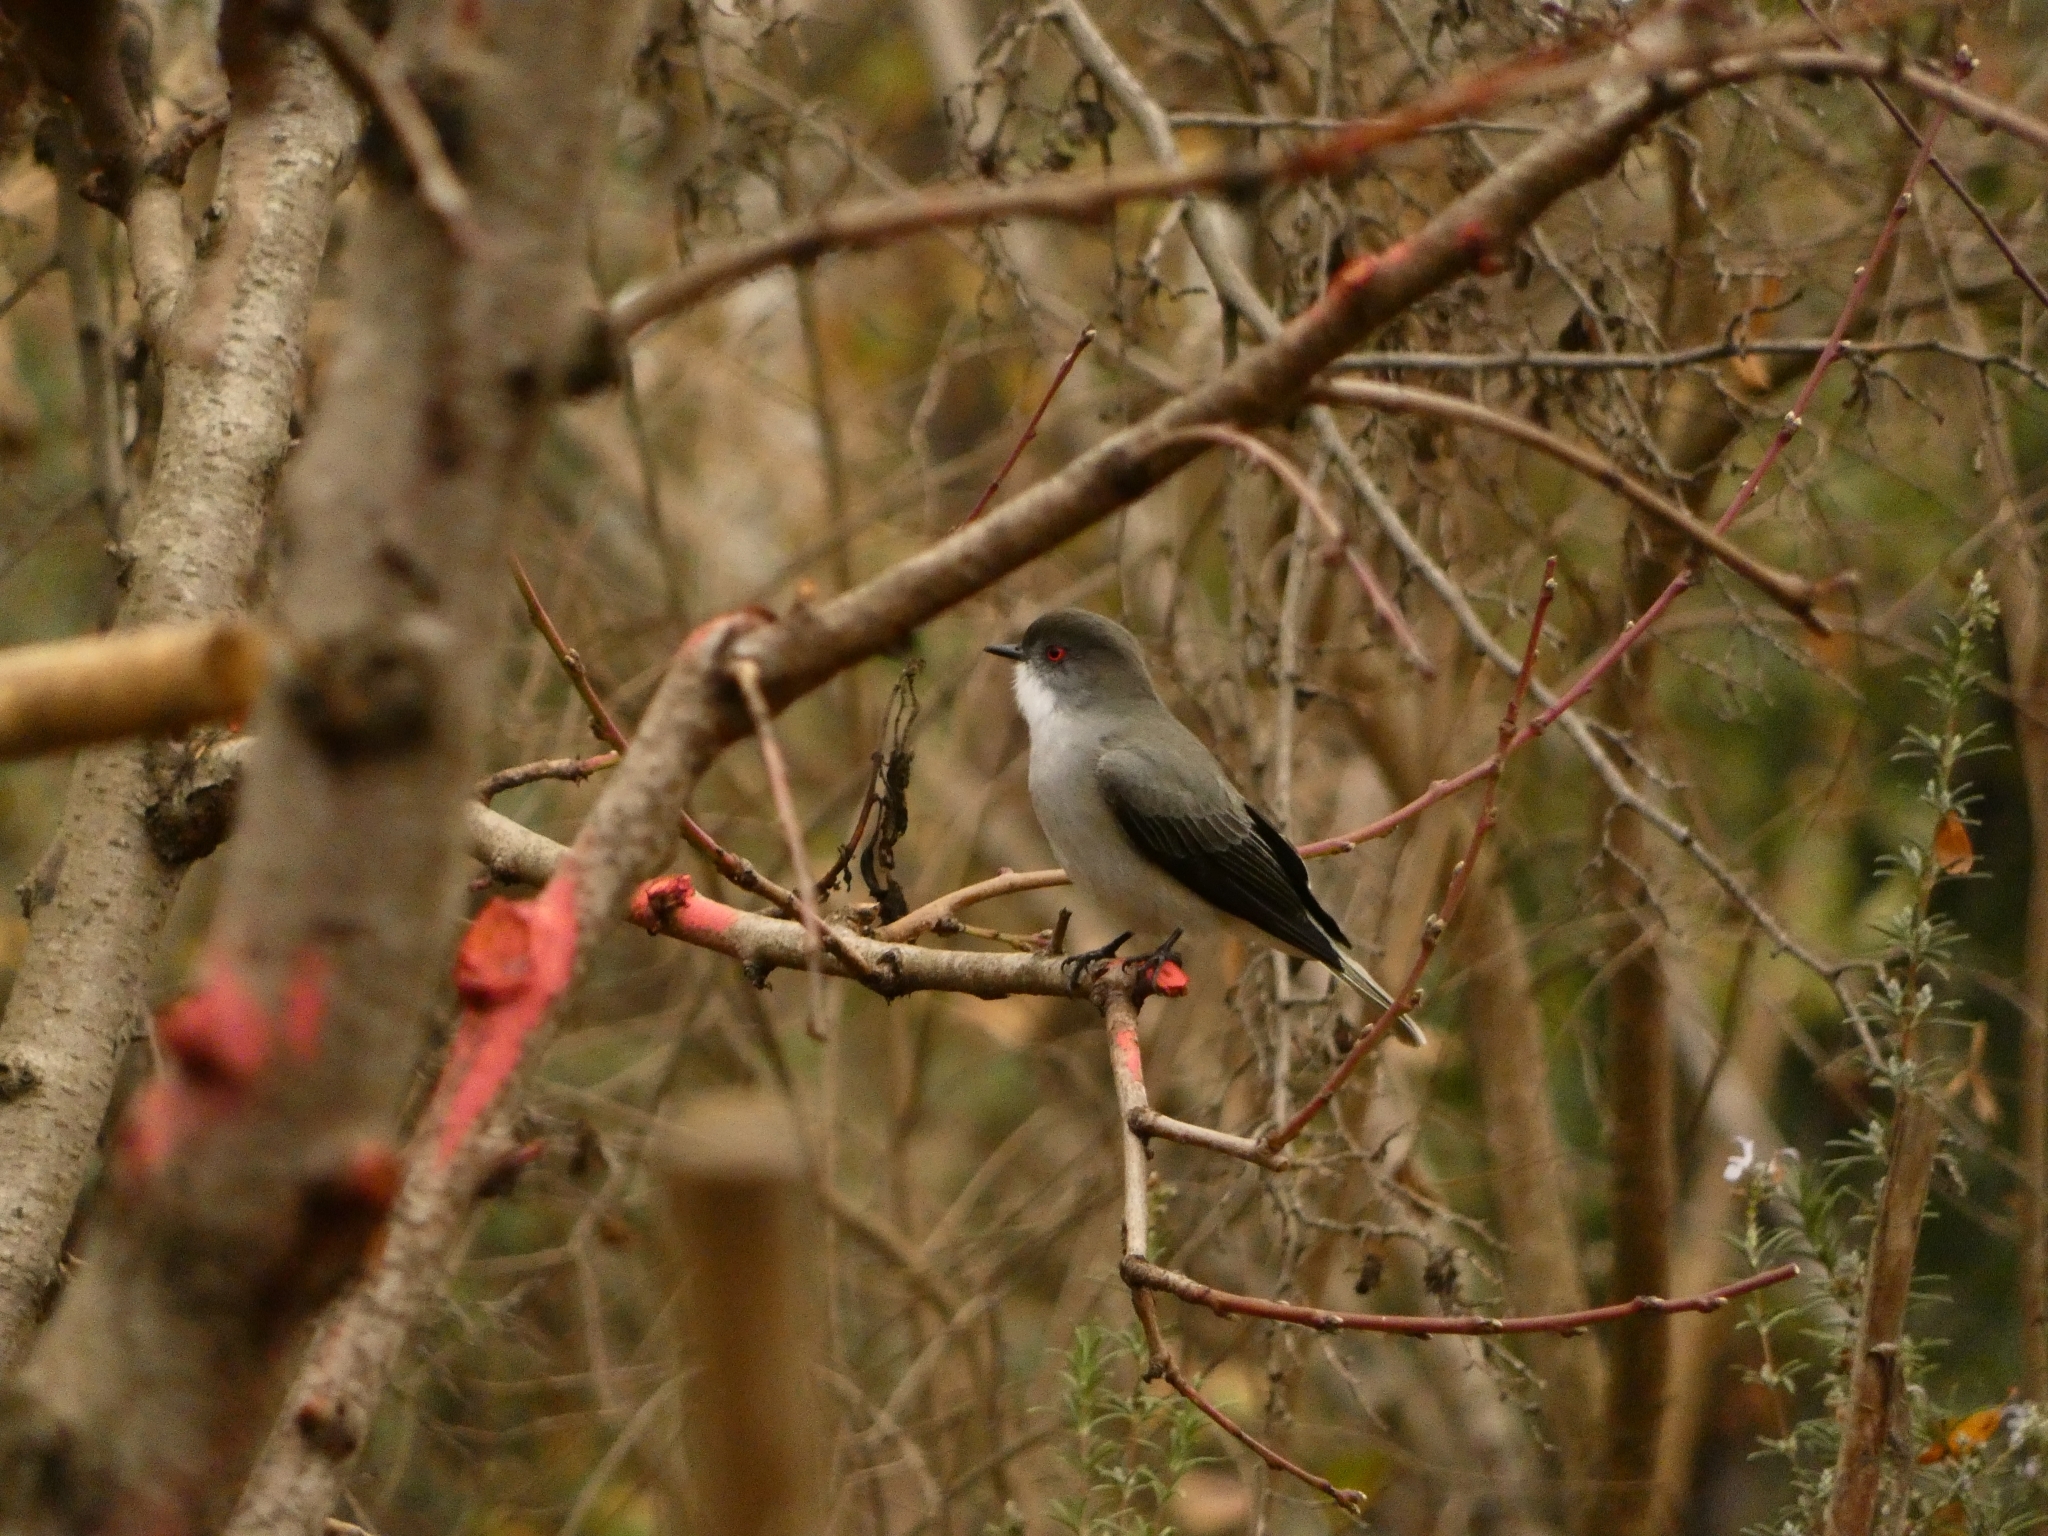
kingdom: Animalia
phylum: Chordata
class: Aves
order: Passeriformes
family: Tyrannidae
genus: Xolmis
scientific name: Xolmis pyrope
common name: Fire-eyed diucon
